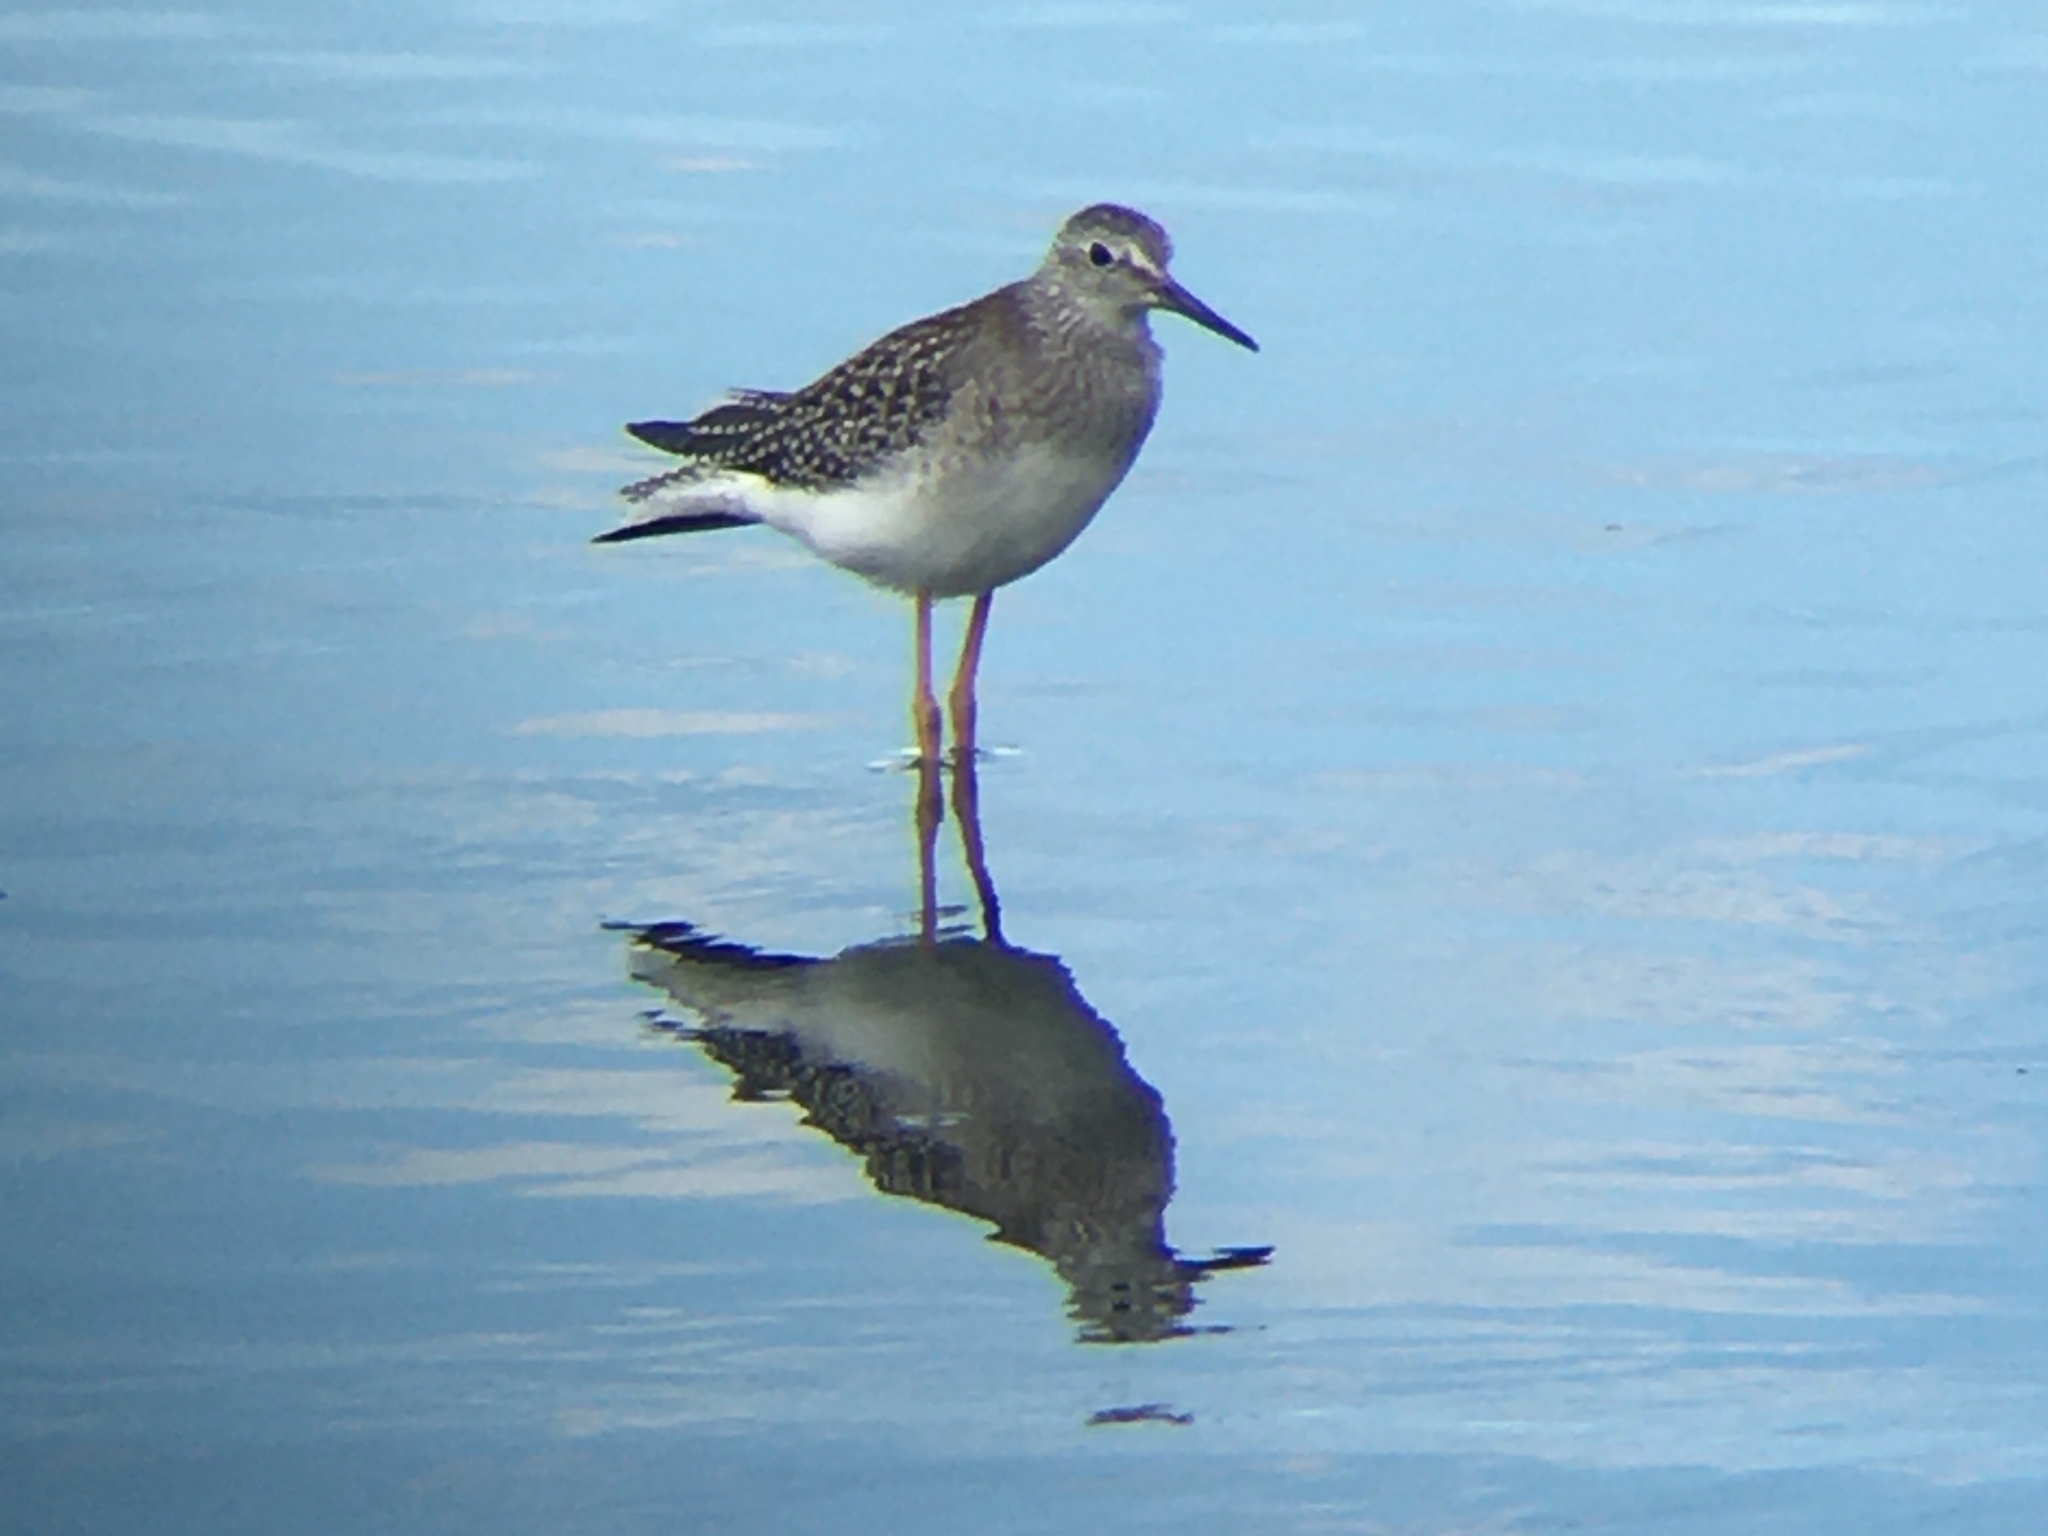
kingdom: Animalia
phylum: Chordata
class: Aves
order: Charadriiformes
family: Scolopacidae
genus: Tringa
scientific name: Tringa flavipes
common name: Lesser yellowlegs
